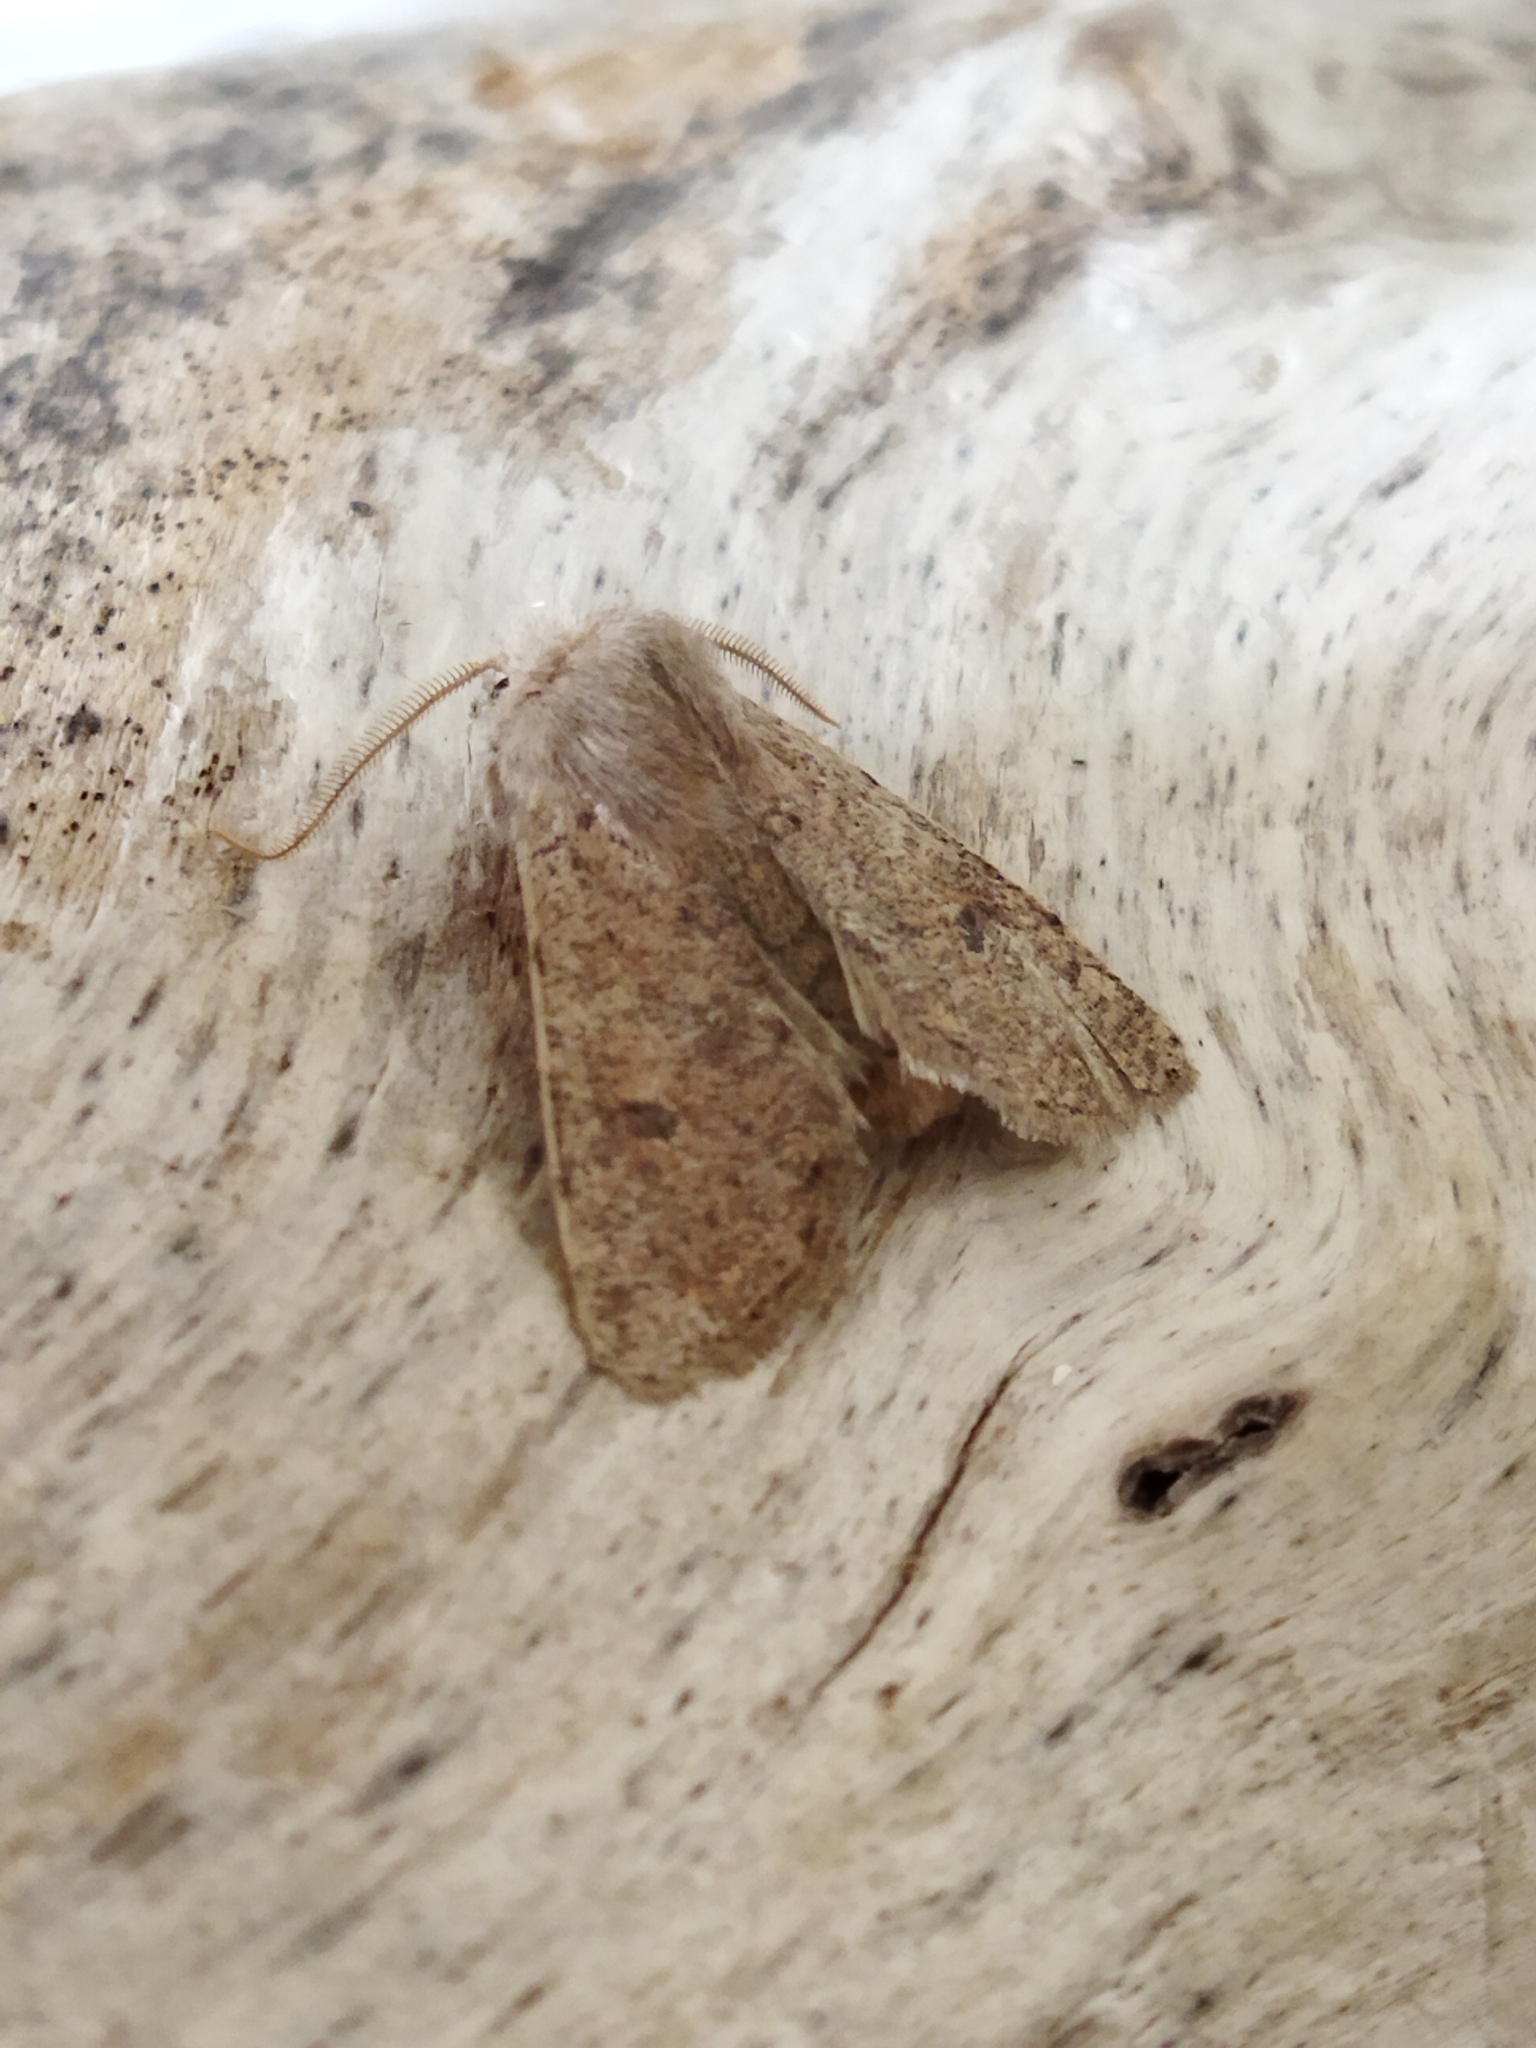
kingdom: Animalia
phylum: Arthropoda
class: Insecta
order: Lepidoptera
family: Noctuidae
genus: Orthosia
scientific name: Orthosia cruda
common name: Small quaker
